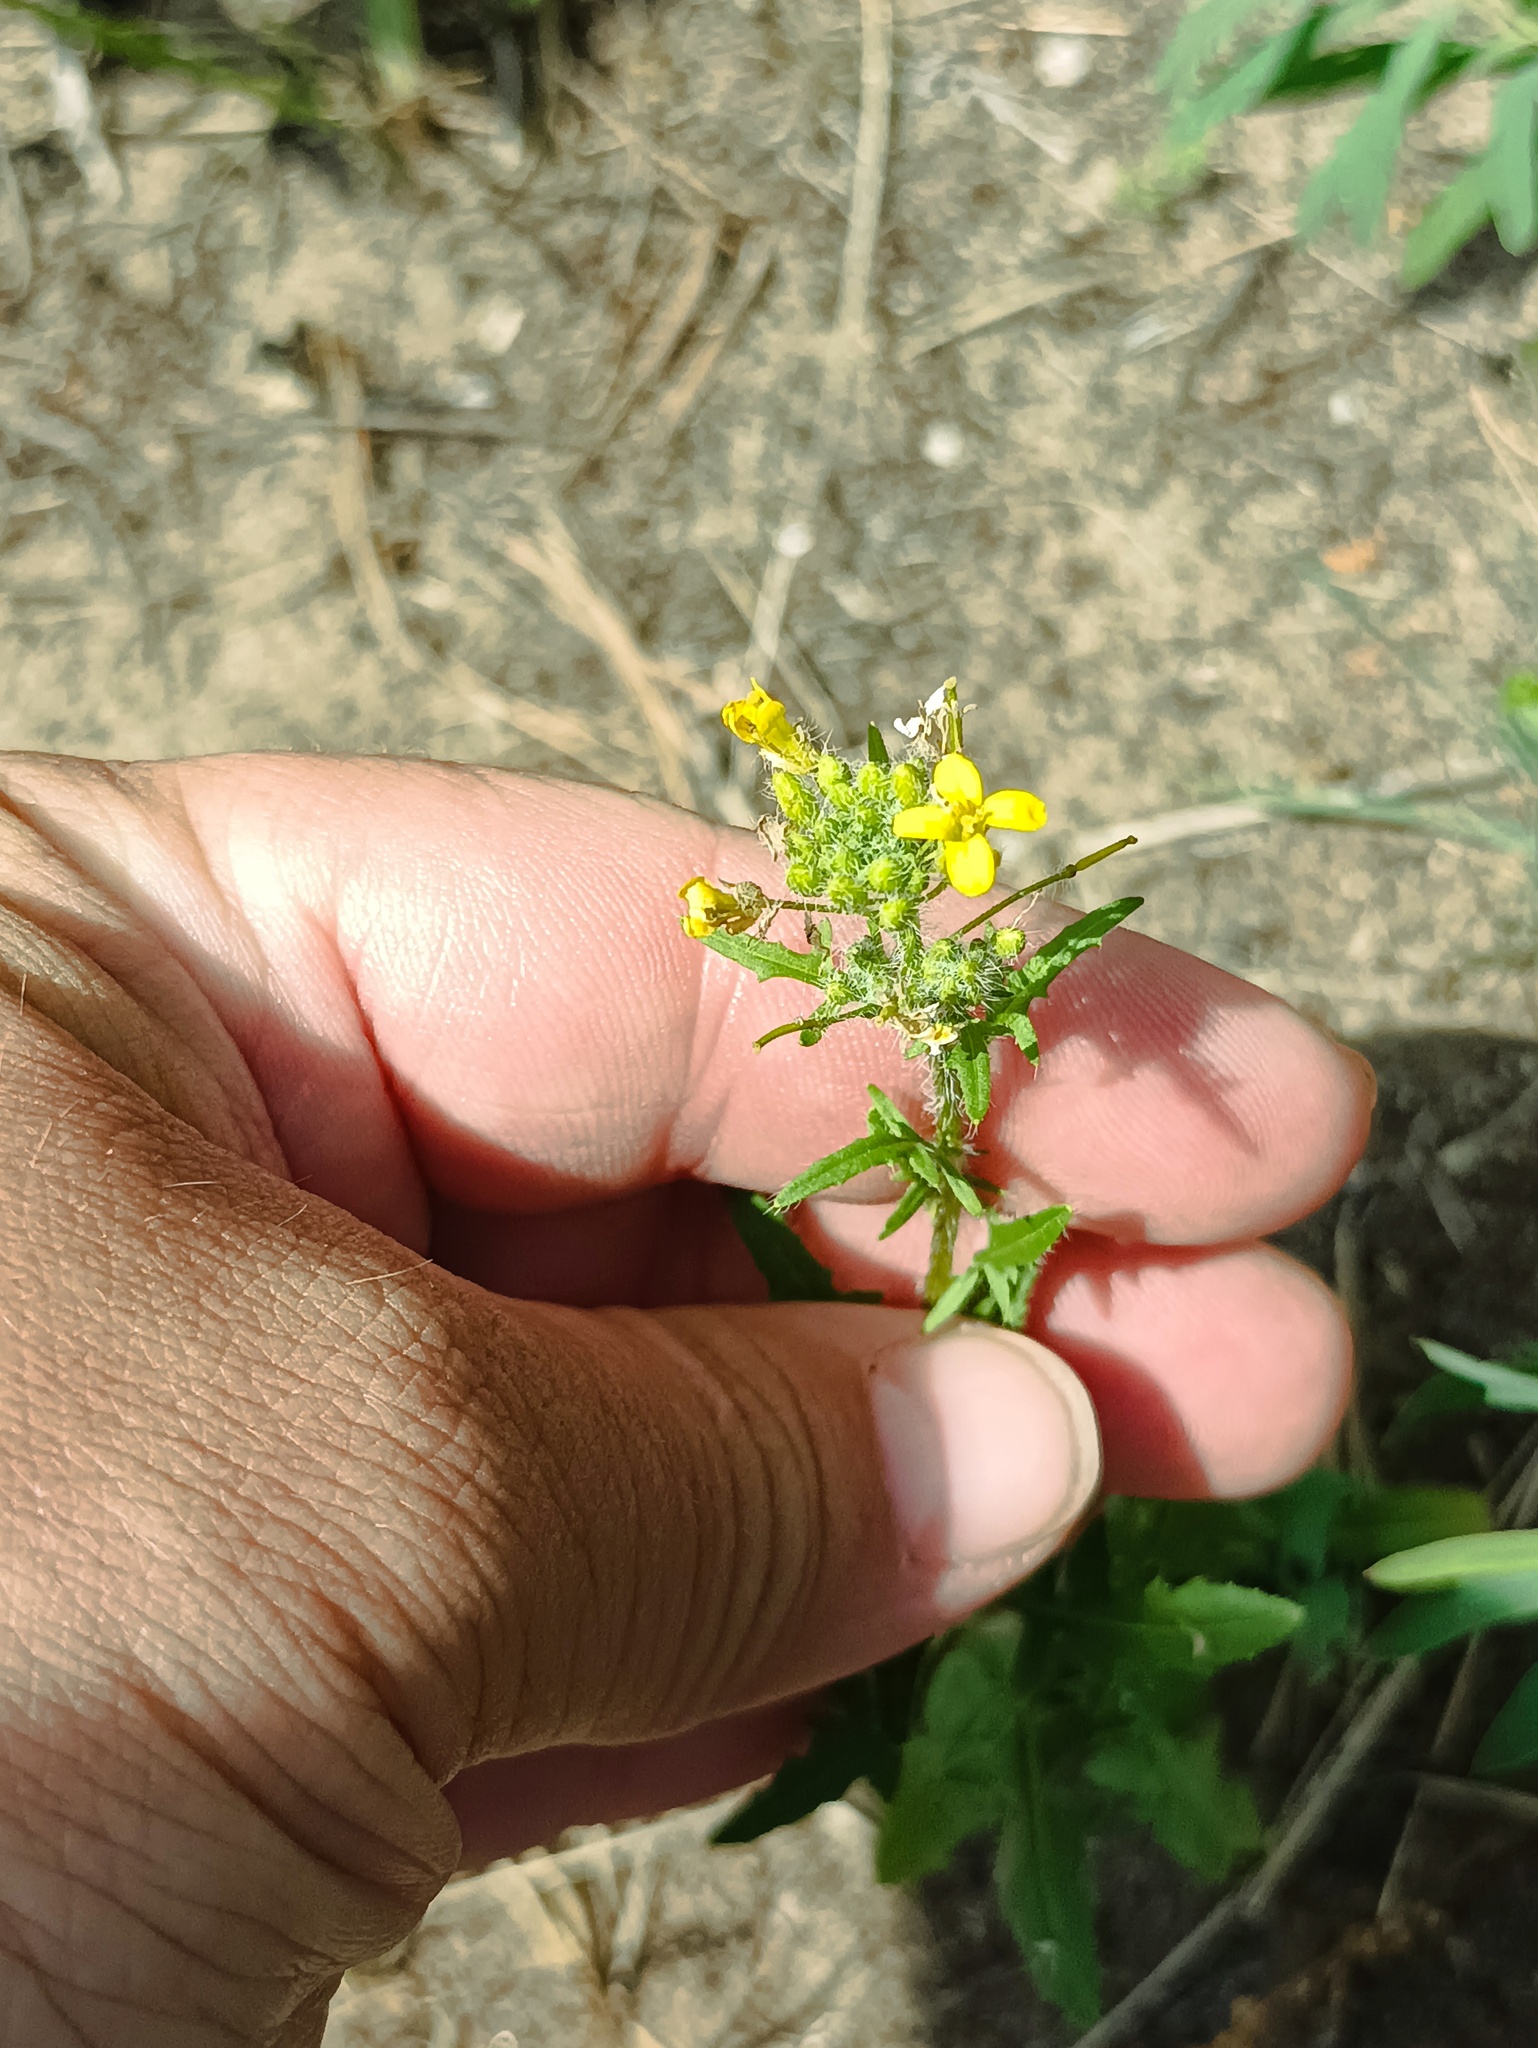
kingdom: Plantae
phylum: Tracheophyta
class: Magnoliopsida
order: Brassicales
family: Brassicaceae
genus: Sisymbrium
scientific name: Sisymbrium loeselii
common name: False london-rocket
